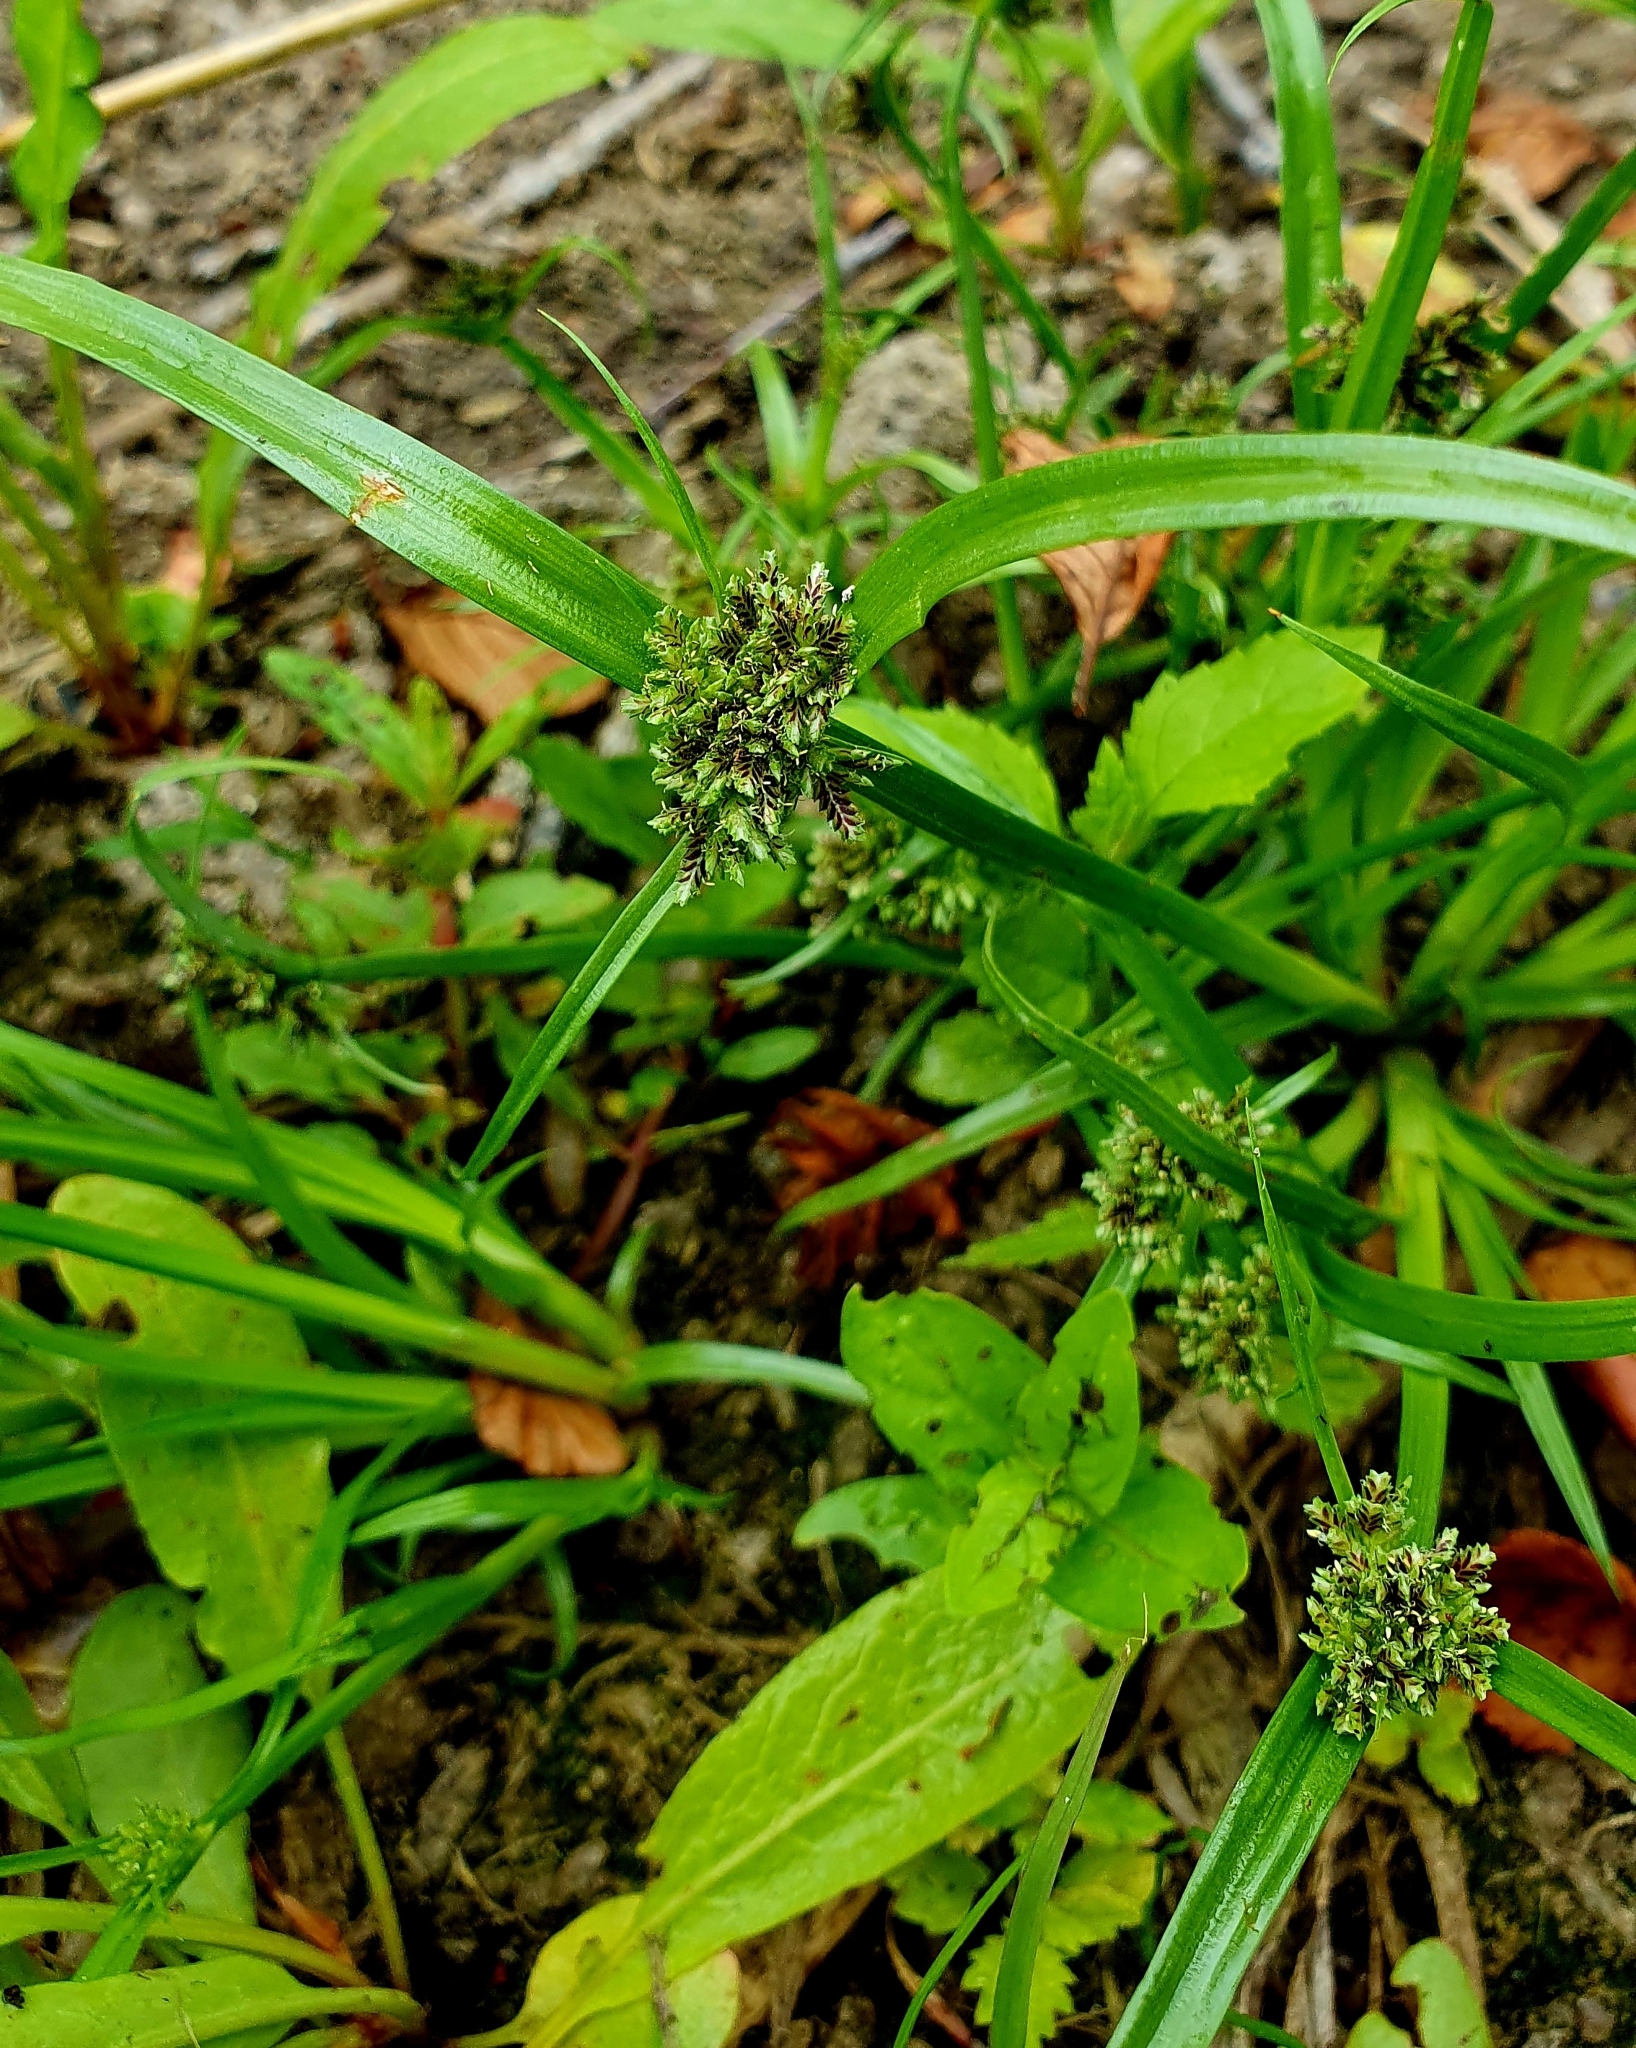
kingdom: Plantae
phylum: Tracheophyta
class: Liliopsida
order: Poales
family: Cyperaceae
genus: Cyperus
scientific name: Cyperus fuscus
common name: Brown galingale
